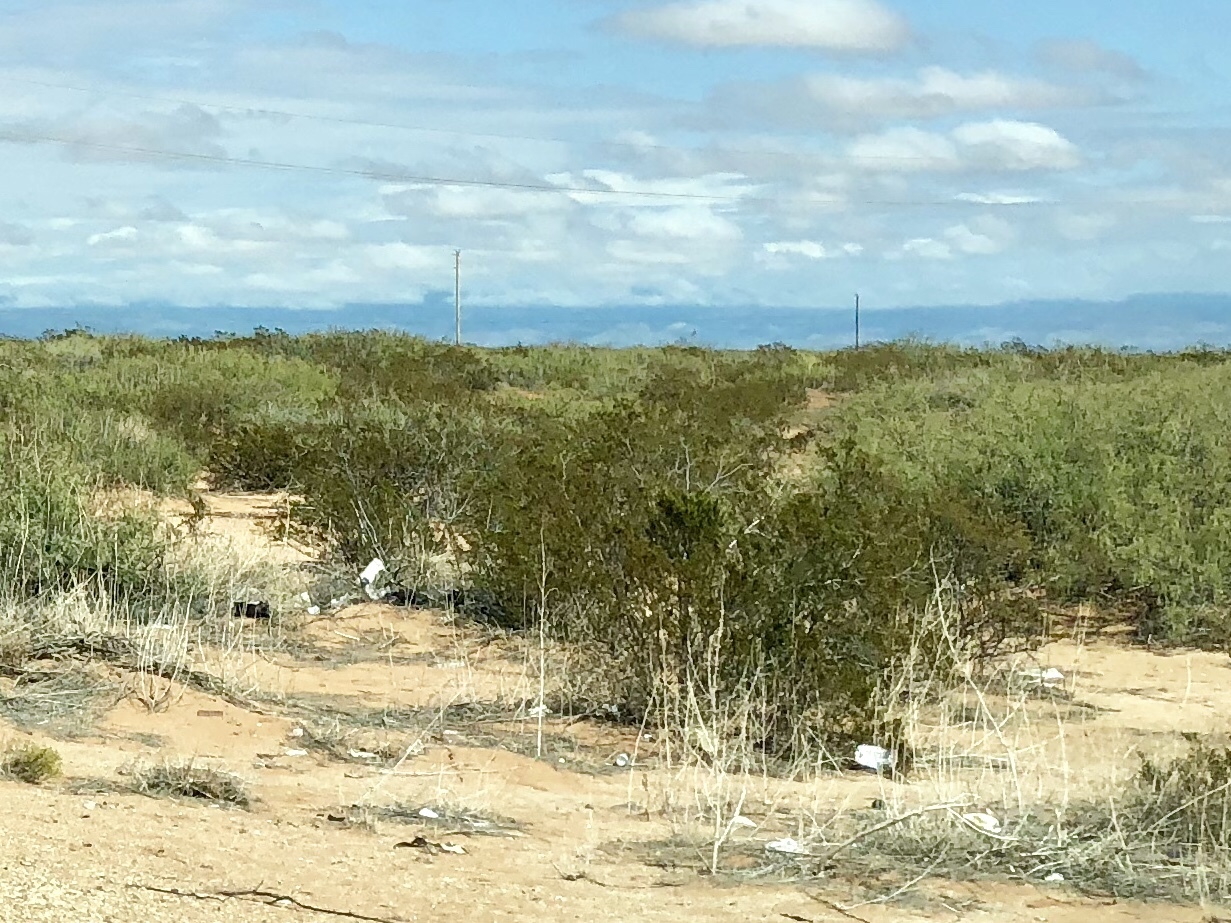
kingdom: Plantae
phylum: Tracheophyta
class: Magnoliopsida
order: Zygophyllales
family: Zygophyllaceae
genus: Larrea
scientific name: Larrea tridentata
